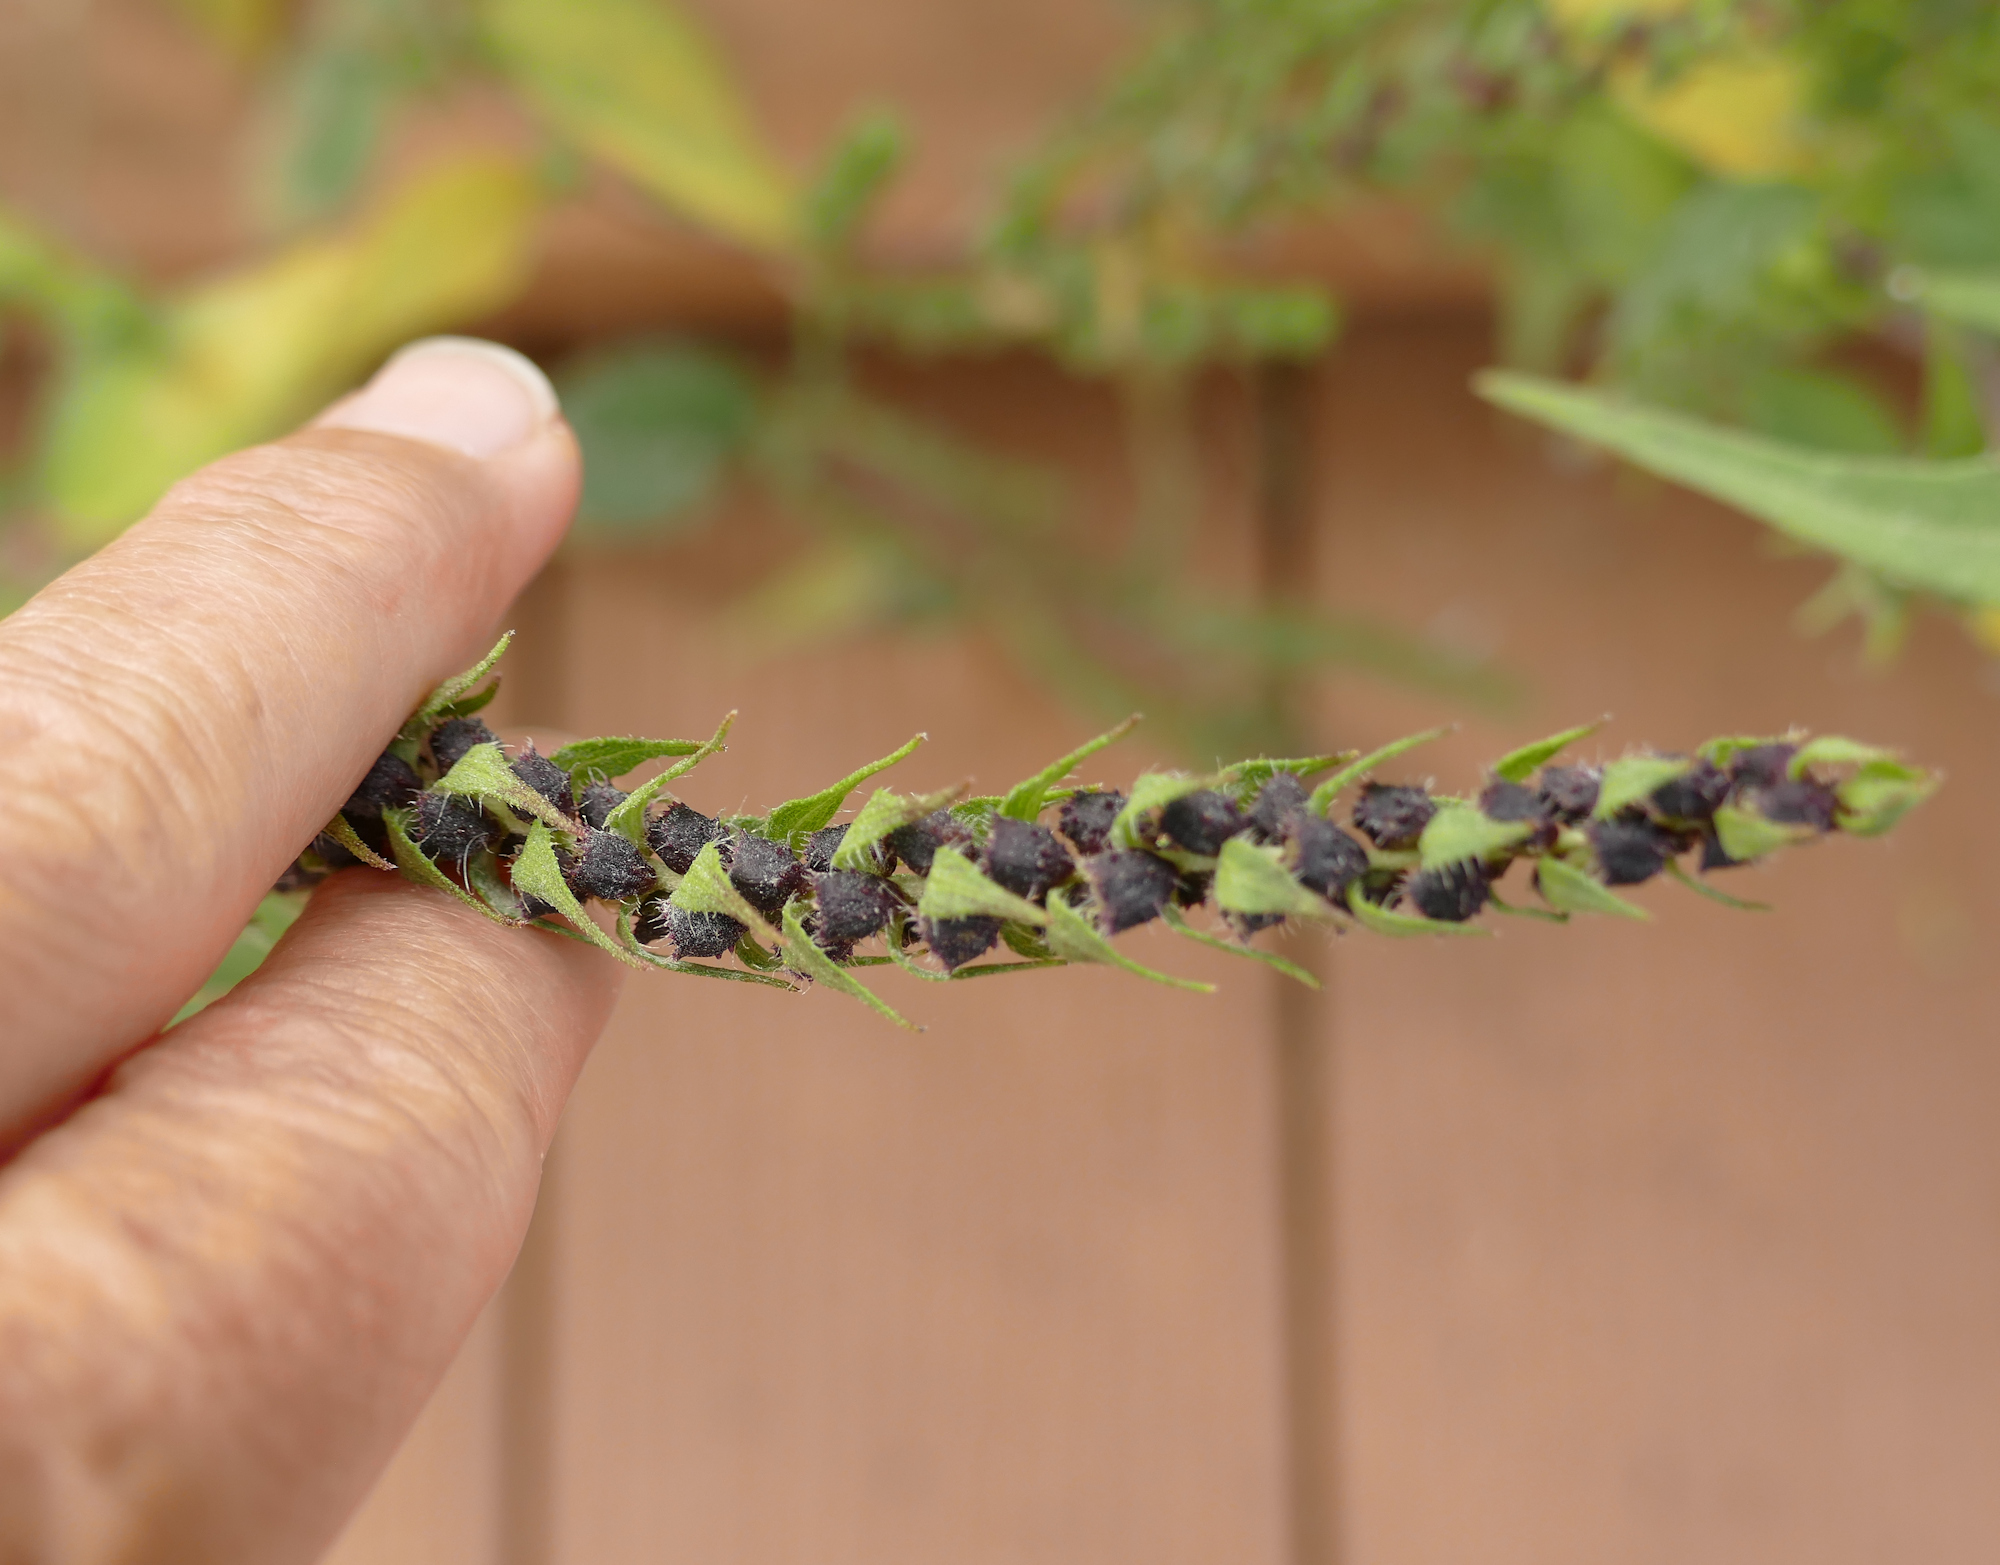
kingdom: Plantae
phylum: Tracheophyta
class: Magnoliopsida
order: Asterales
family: Asteraceae
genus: Iva
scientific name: Iva annua
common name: Marsh-elder
